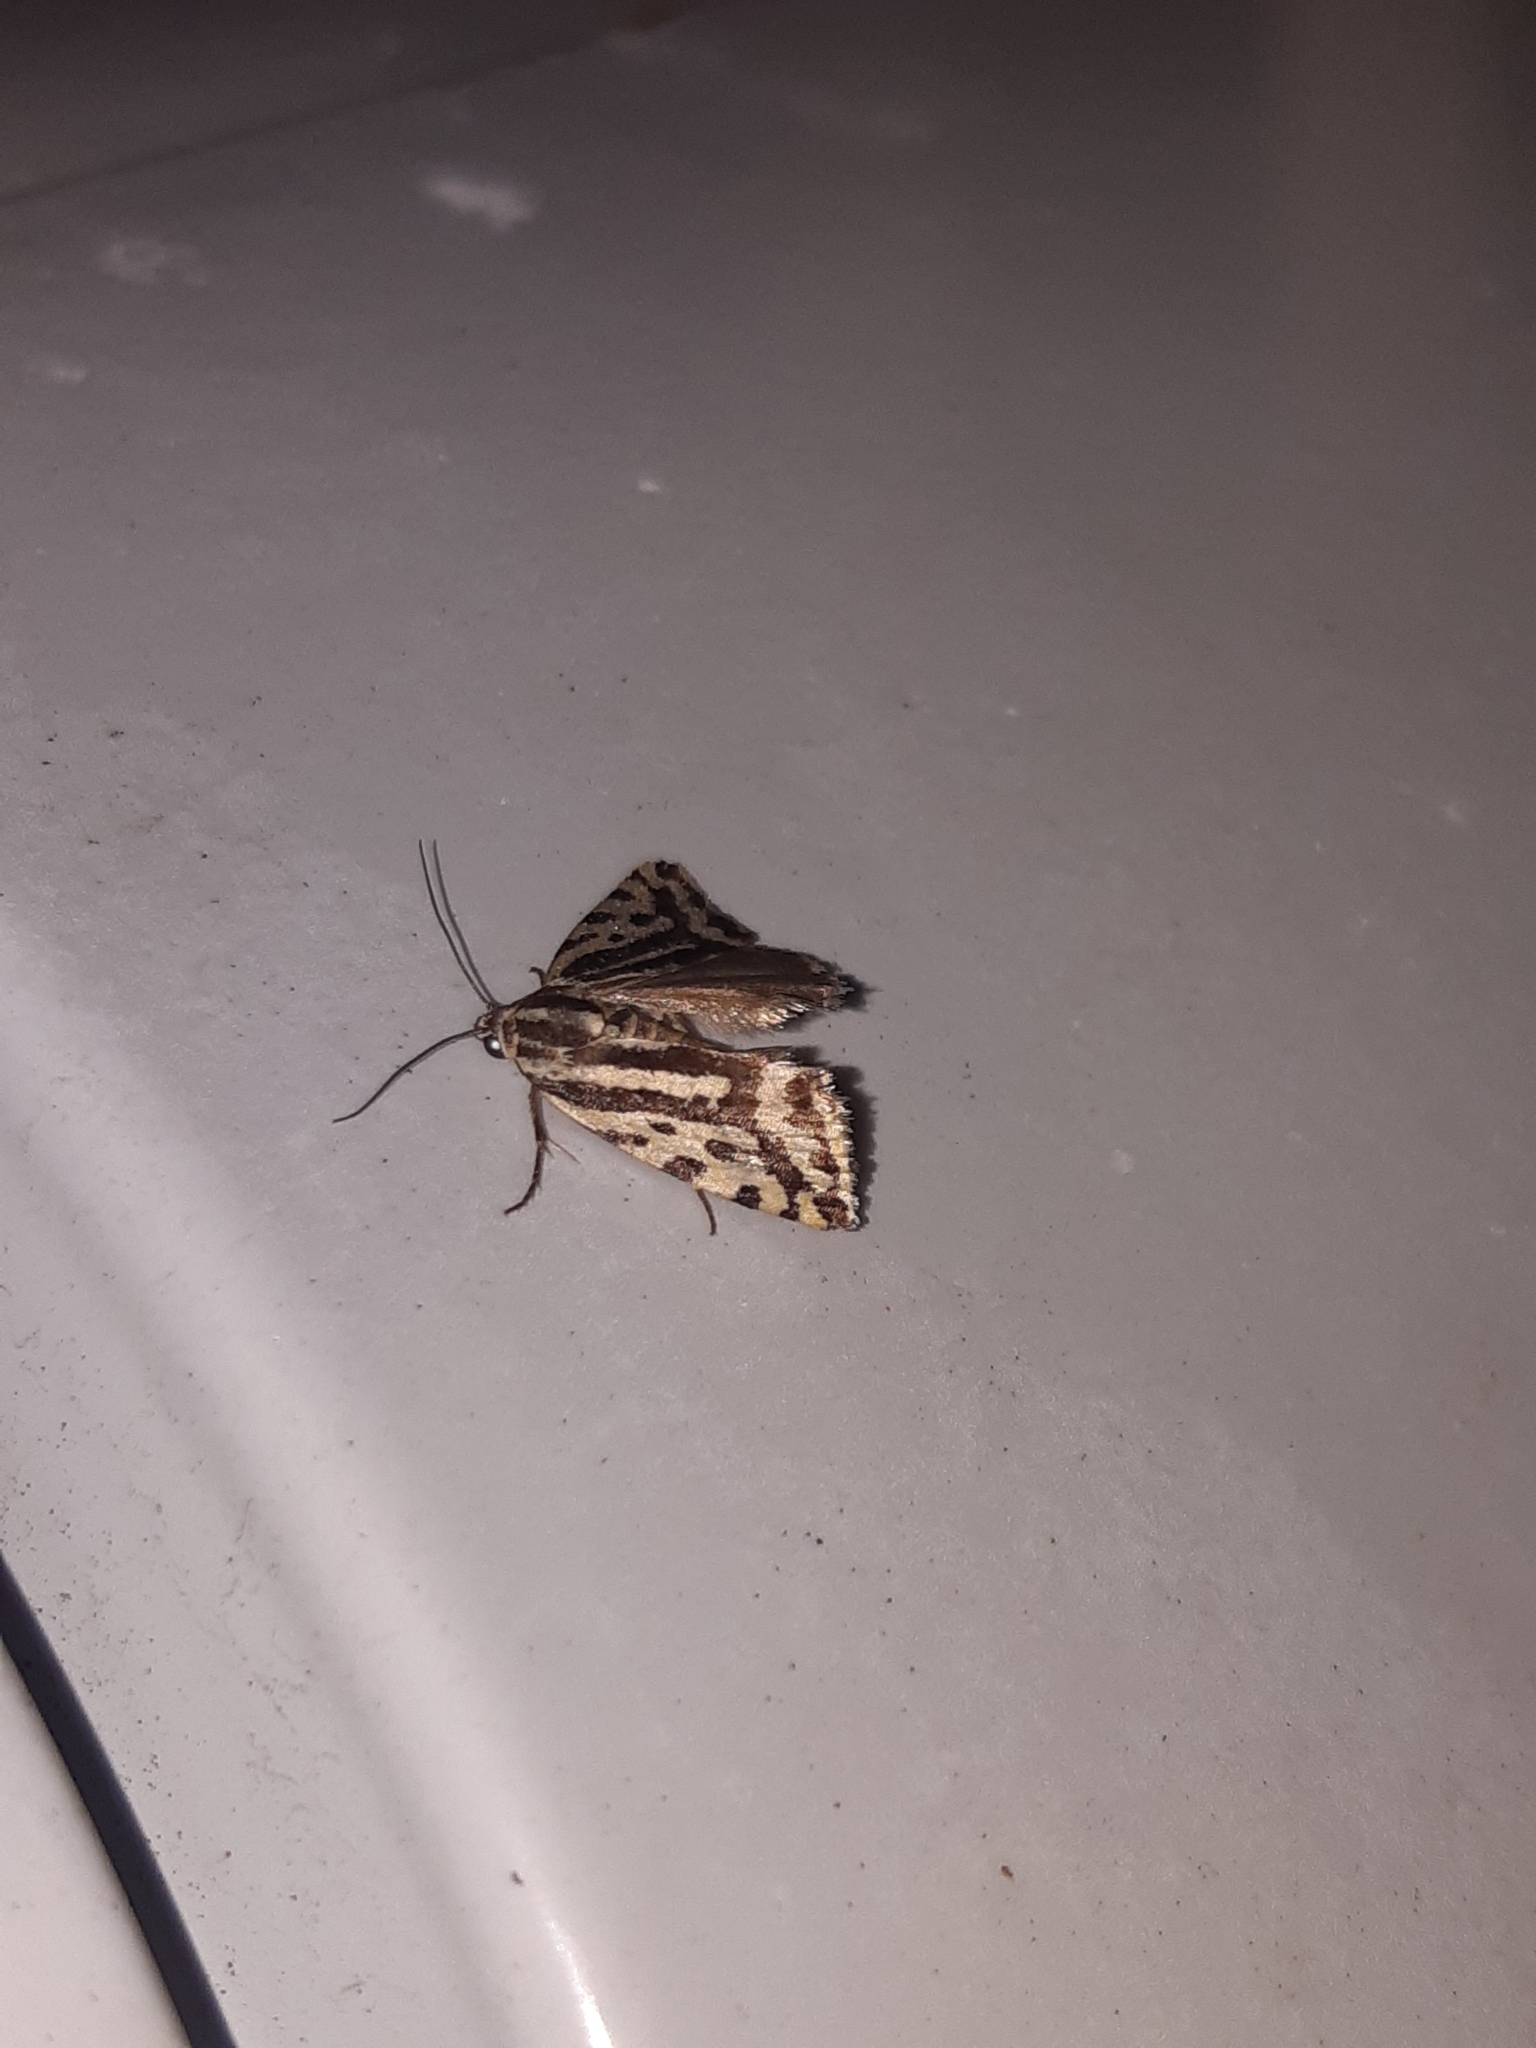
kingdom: Animalia
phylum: Arthropoda
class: Insecta
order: Lepidoptera
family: Noctuidae
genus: Acontia
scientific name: Acontia trabealis
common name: Spotted sulphur
